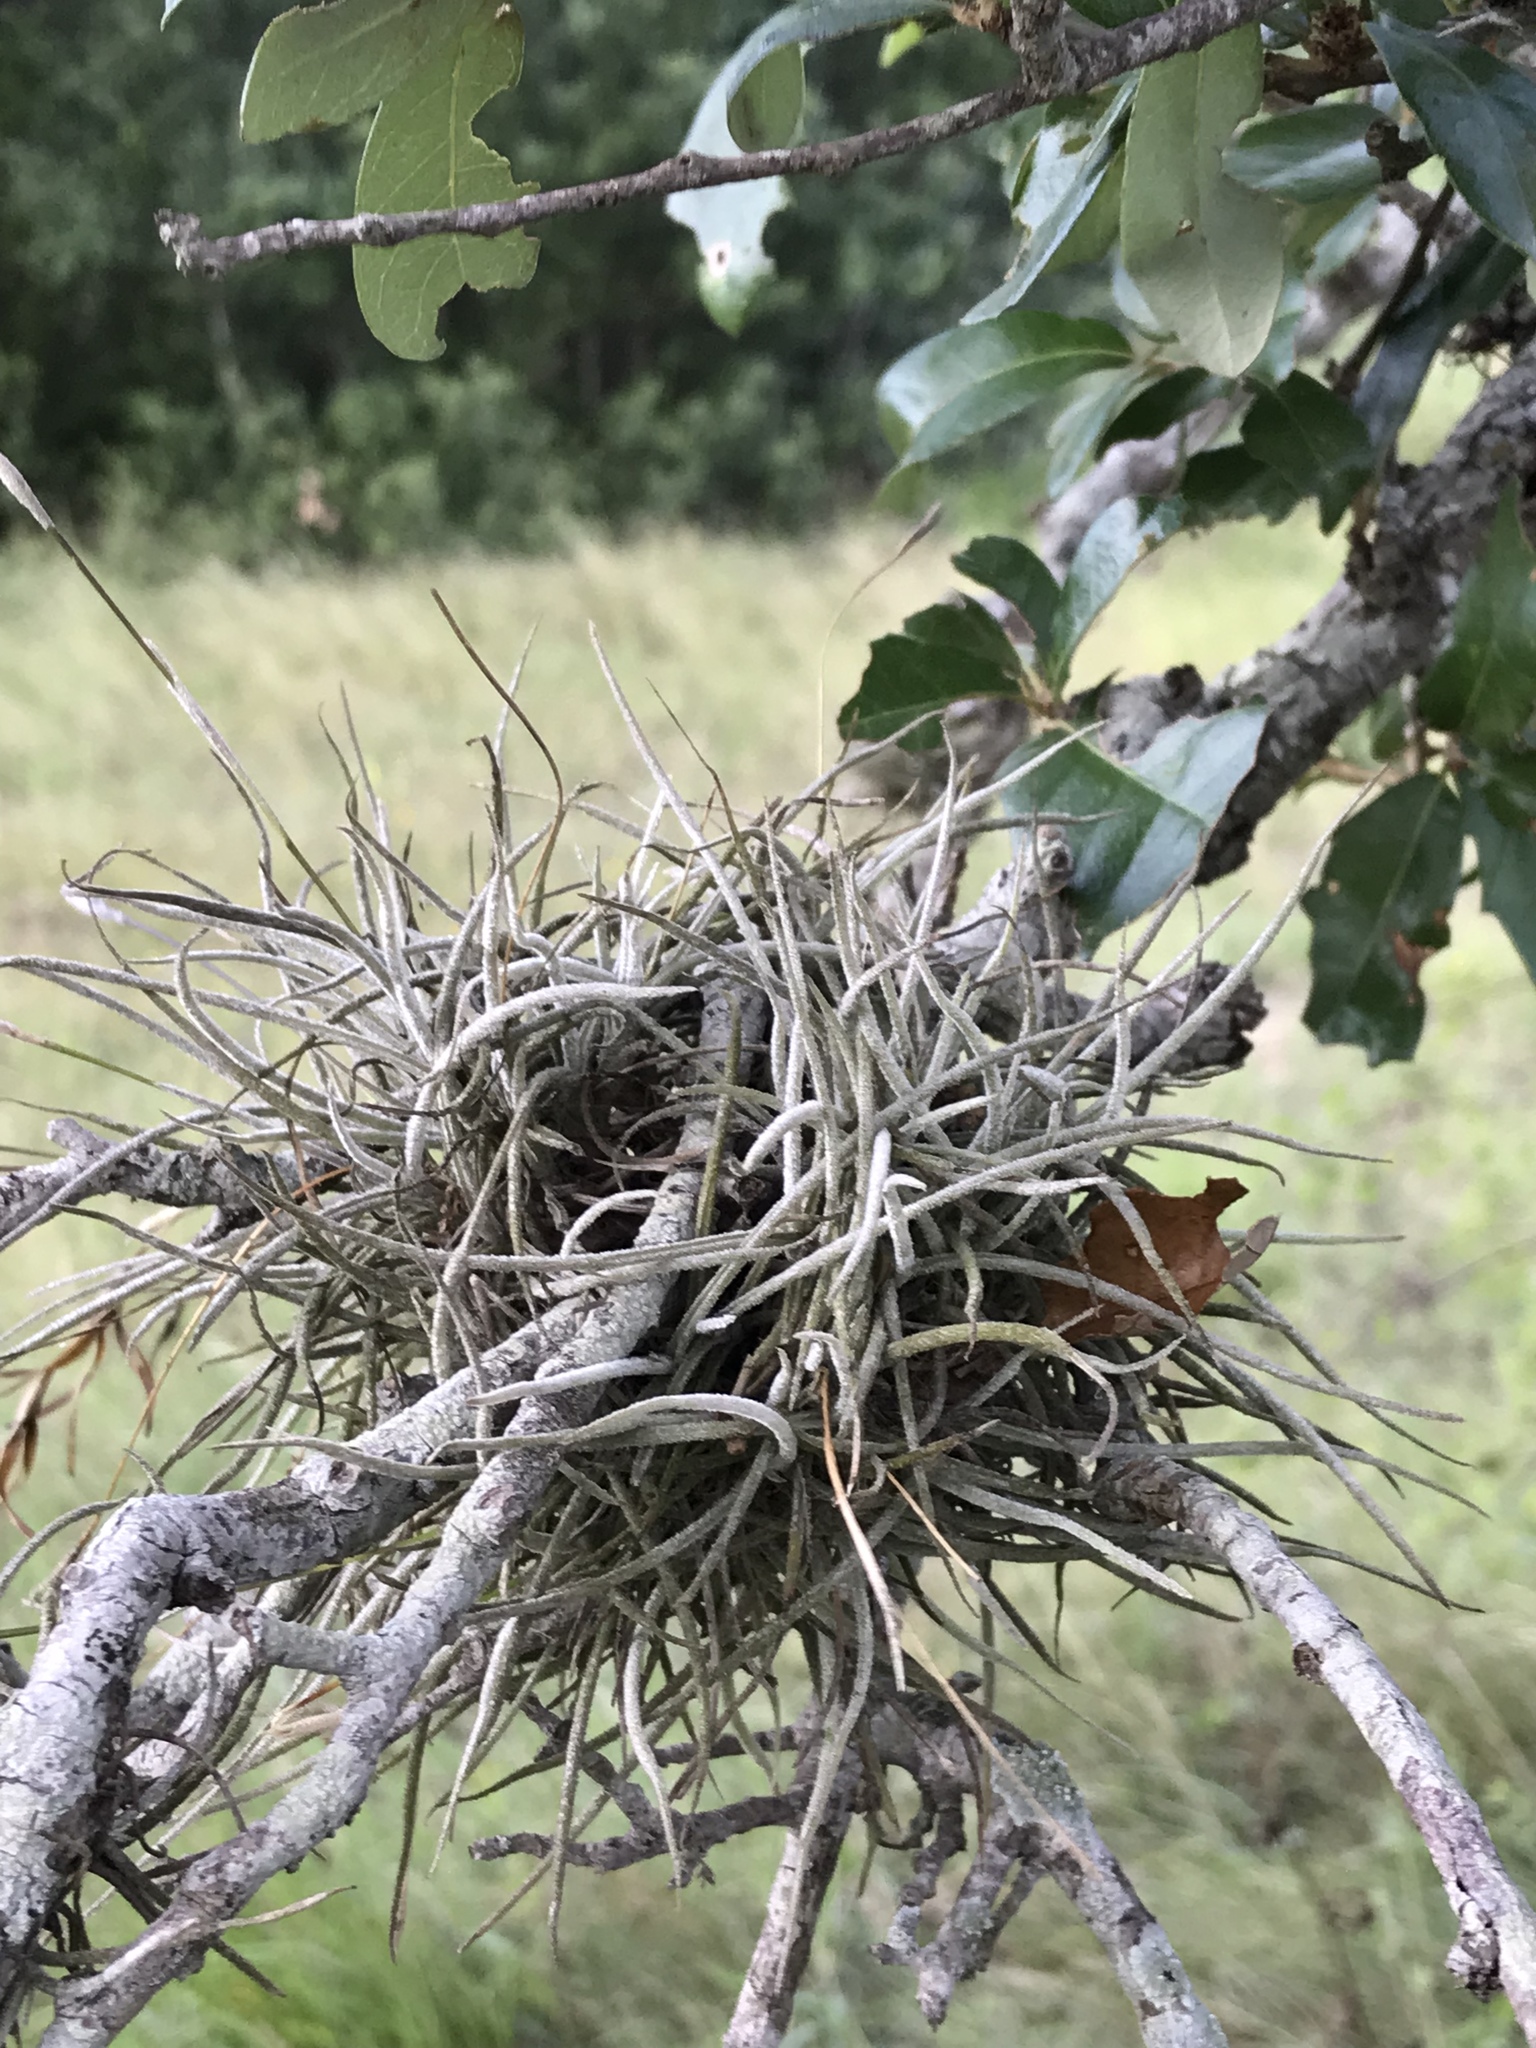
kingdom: Plantae
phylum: Tracheophyta
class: Liliopsida
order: Poales
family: Bromeliaceae
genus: Tillandsia
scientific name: Tillandsia recurvata
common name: Small ballmoss
